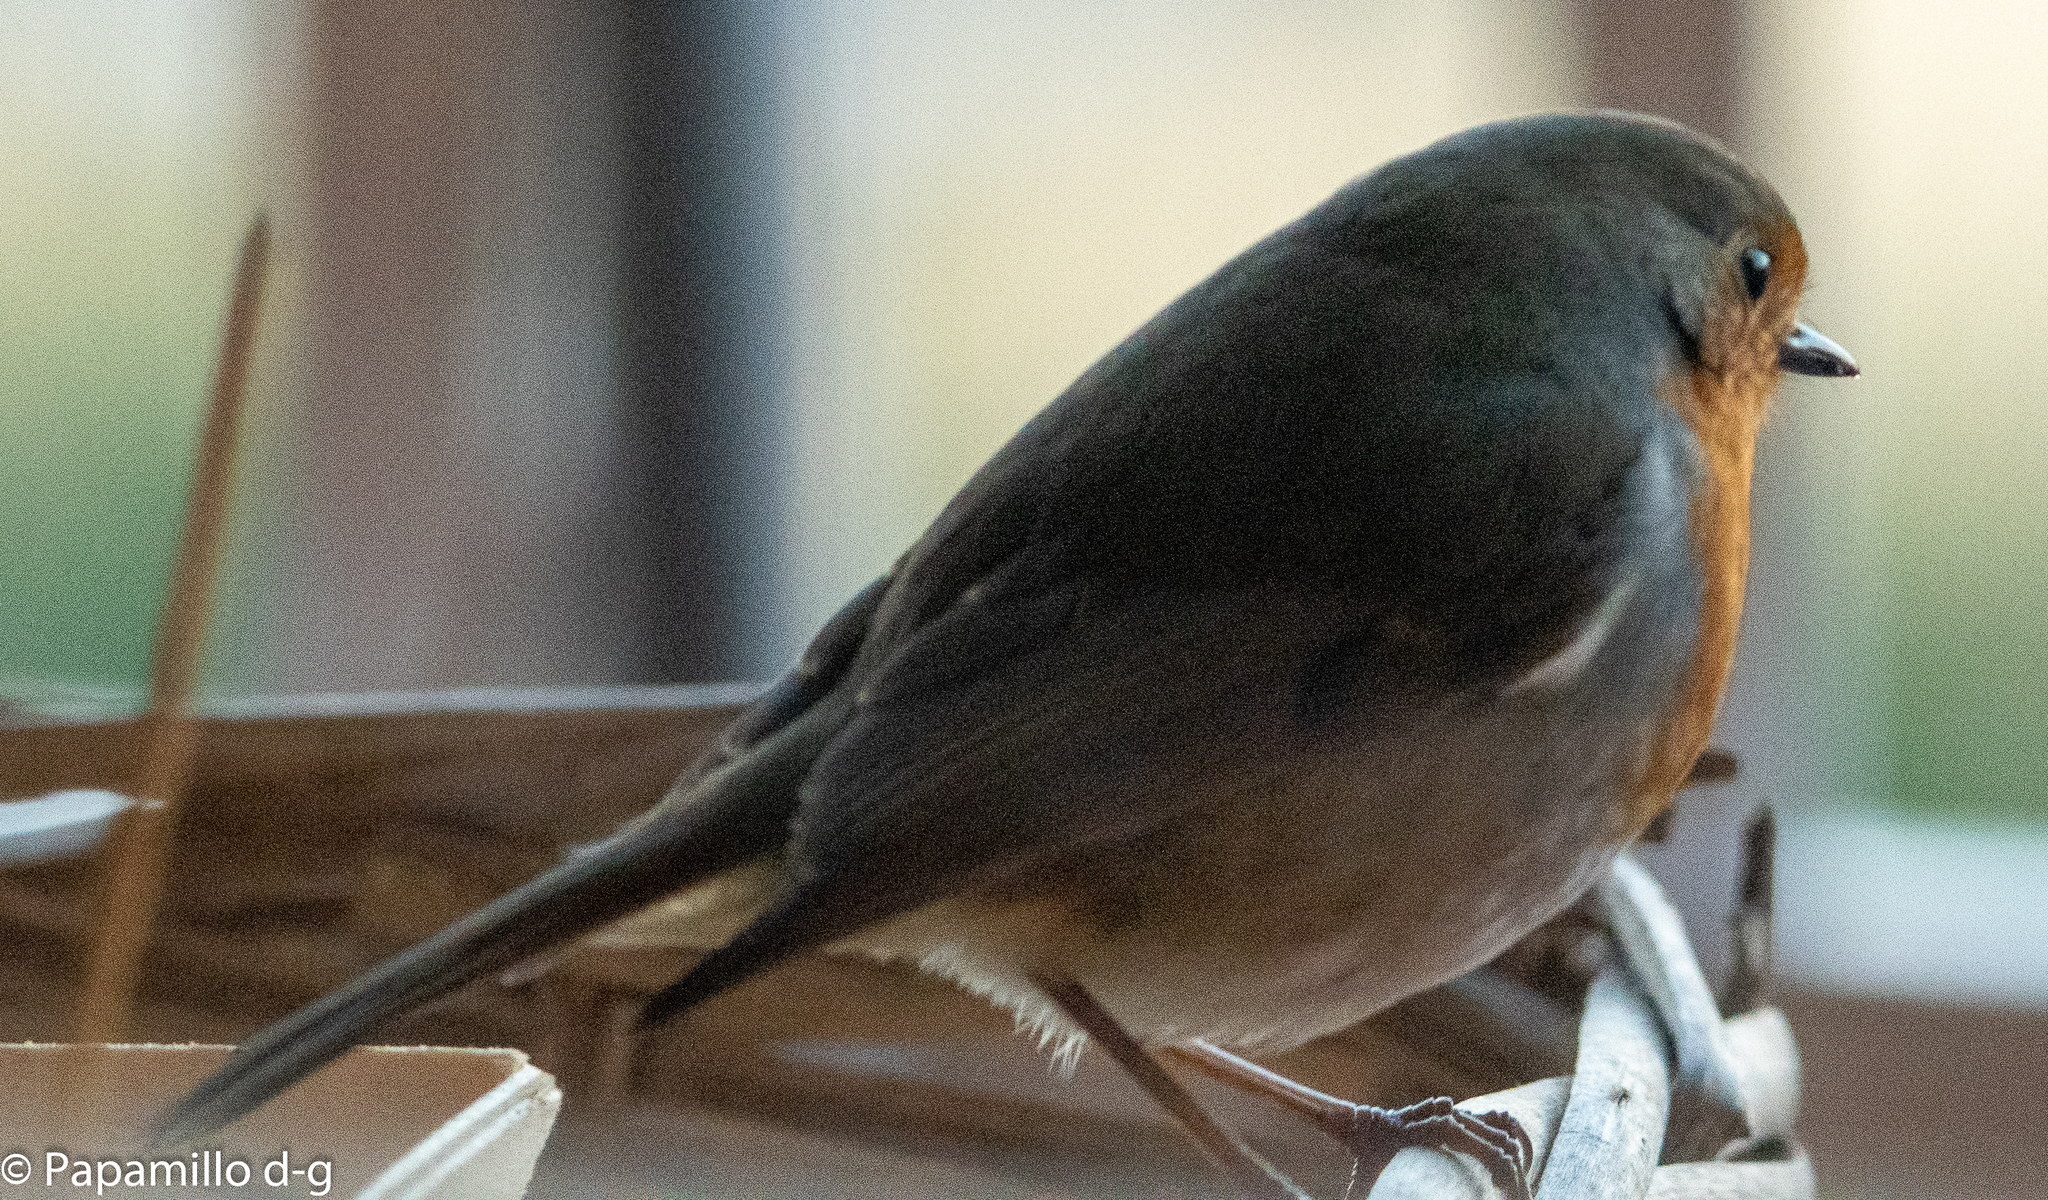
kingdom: Animalia
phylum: Chordata
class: Aves
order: Passeriformes
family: Muscicapidae
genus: Erithacus
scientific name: Erithacus rubecula
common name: European robin
